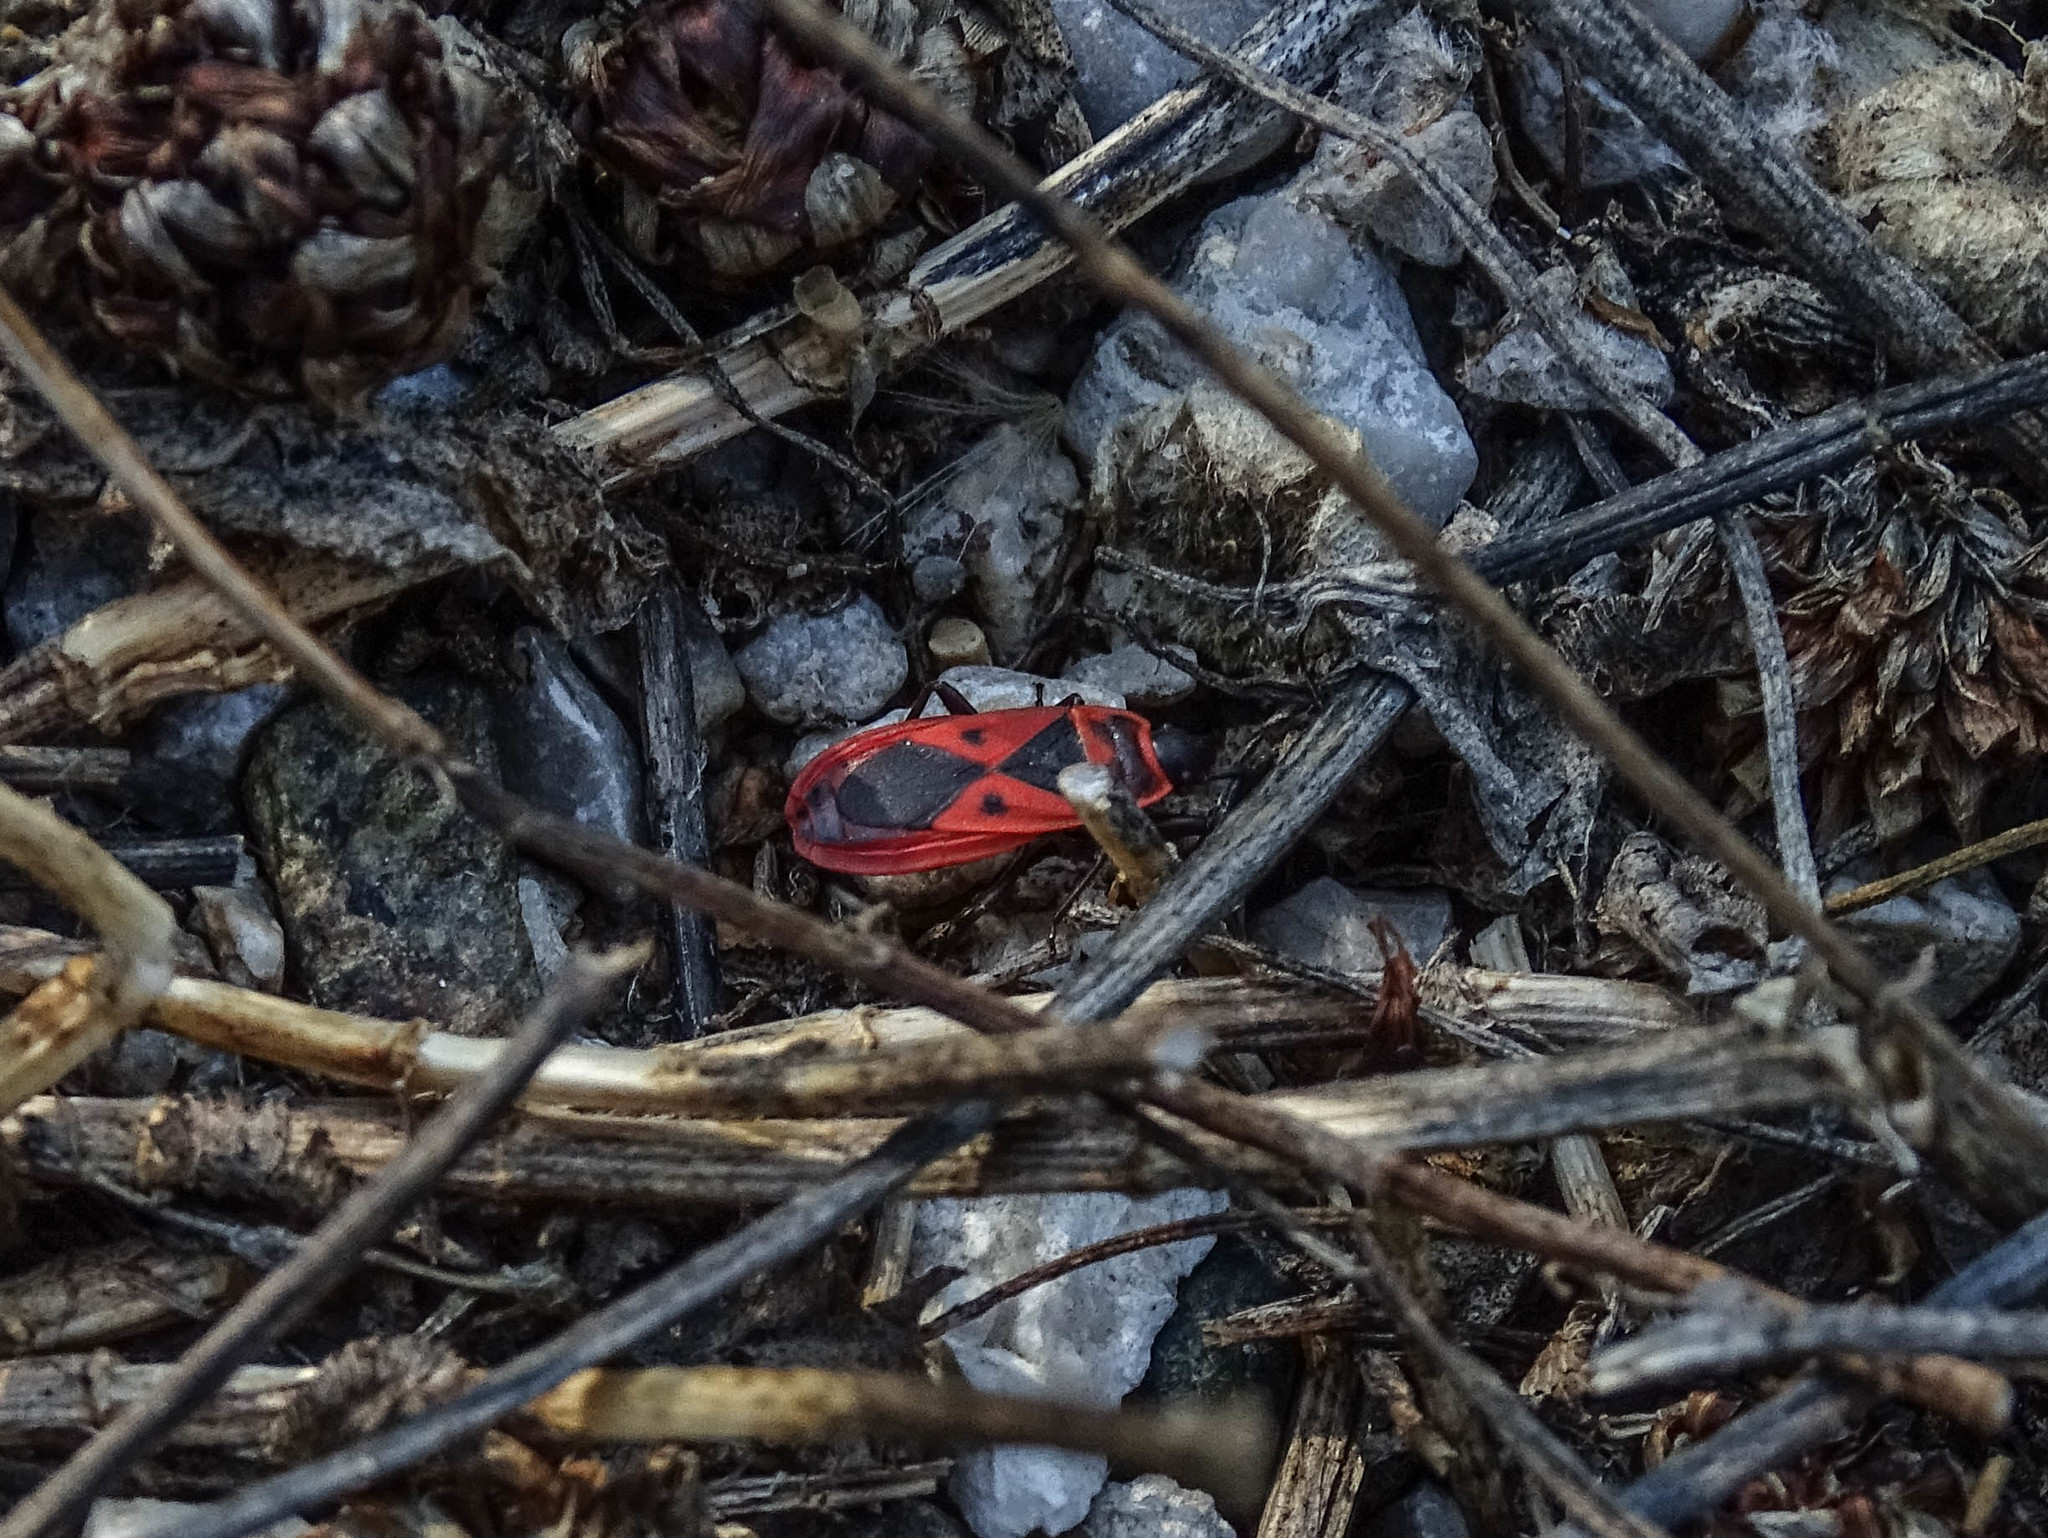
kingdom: Animalia
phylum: Arthropoda
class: Insecta
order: Hemiptera
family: Pyrrhocoridae
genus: Scantius
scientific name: Scantius aegyptius
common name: Red bug
